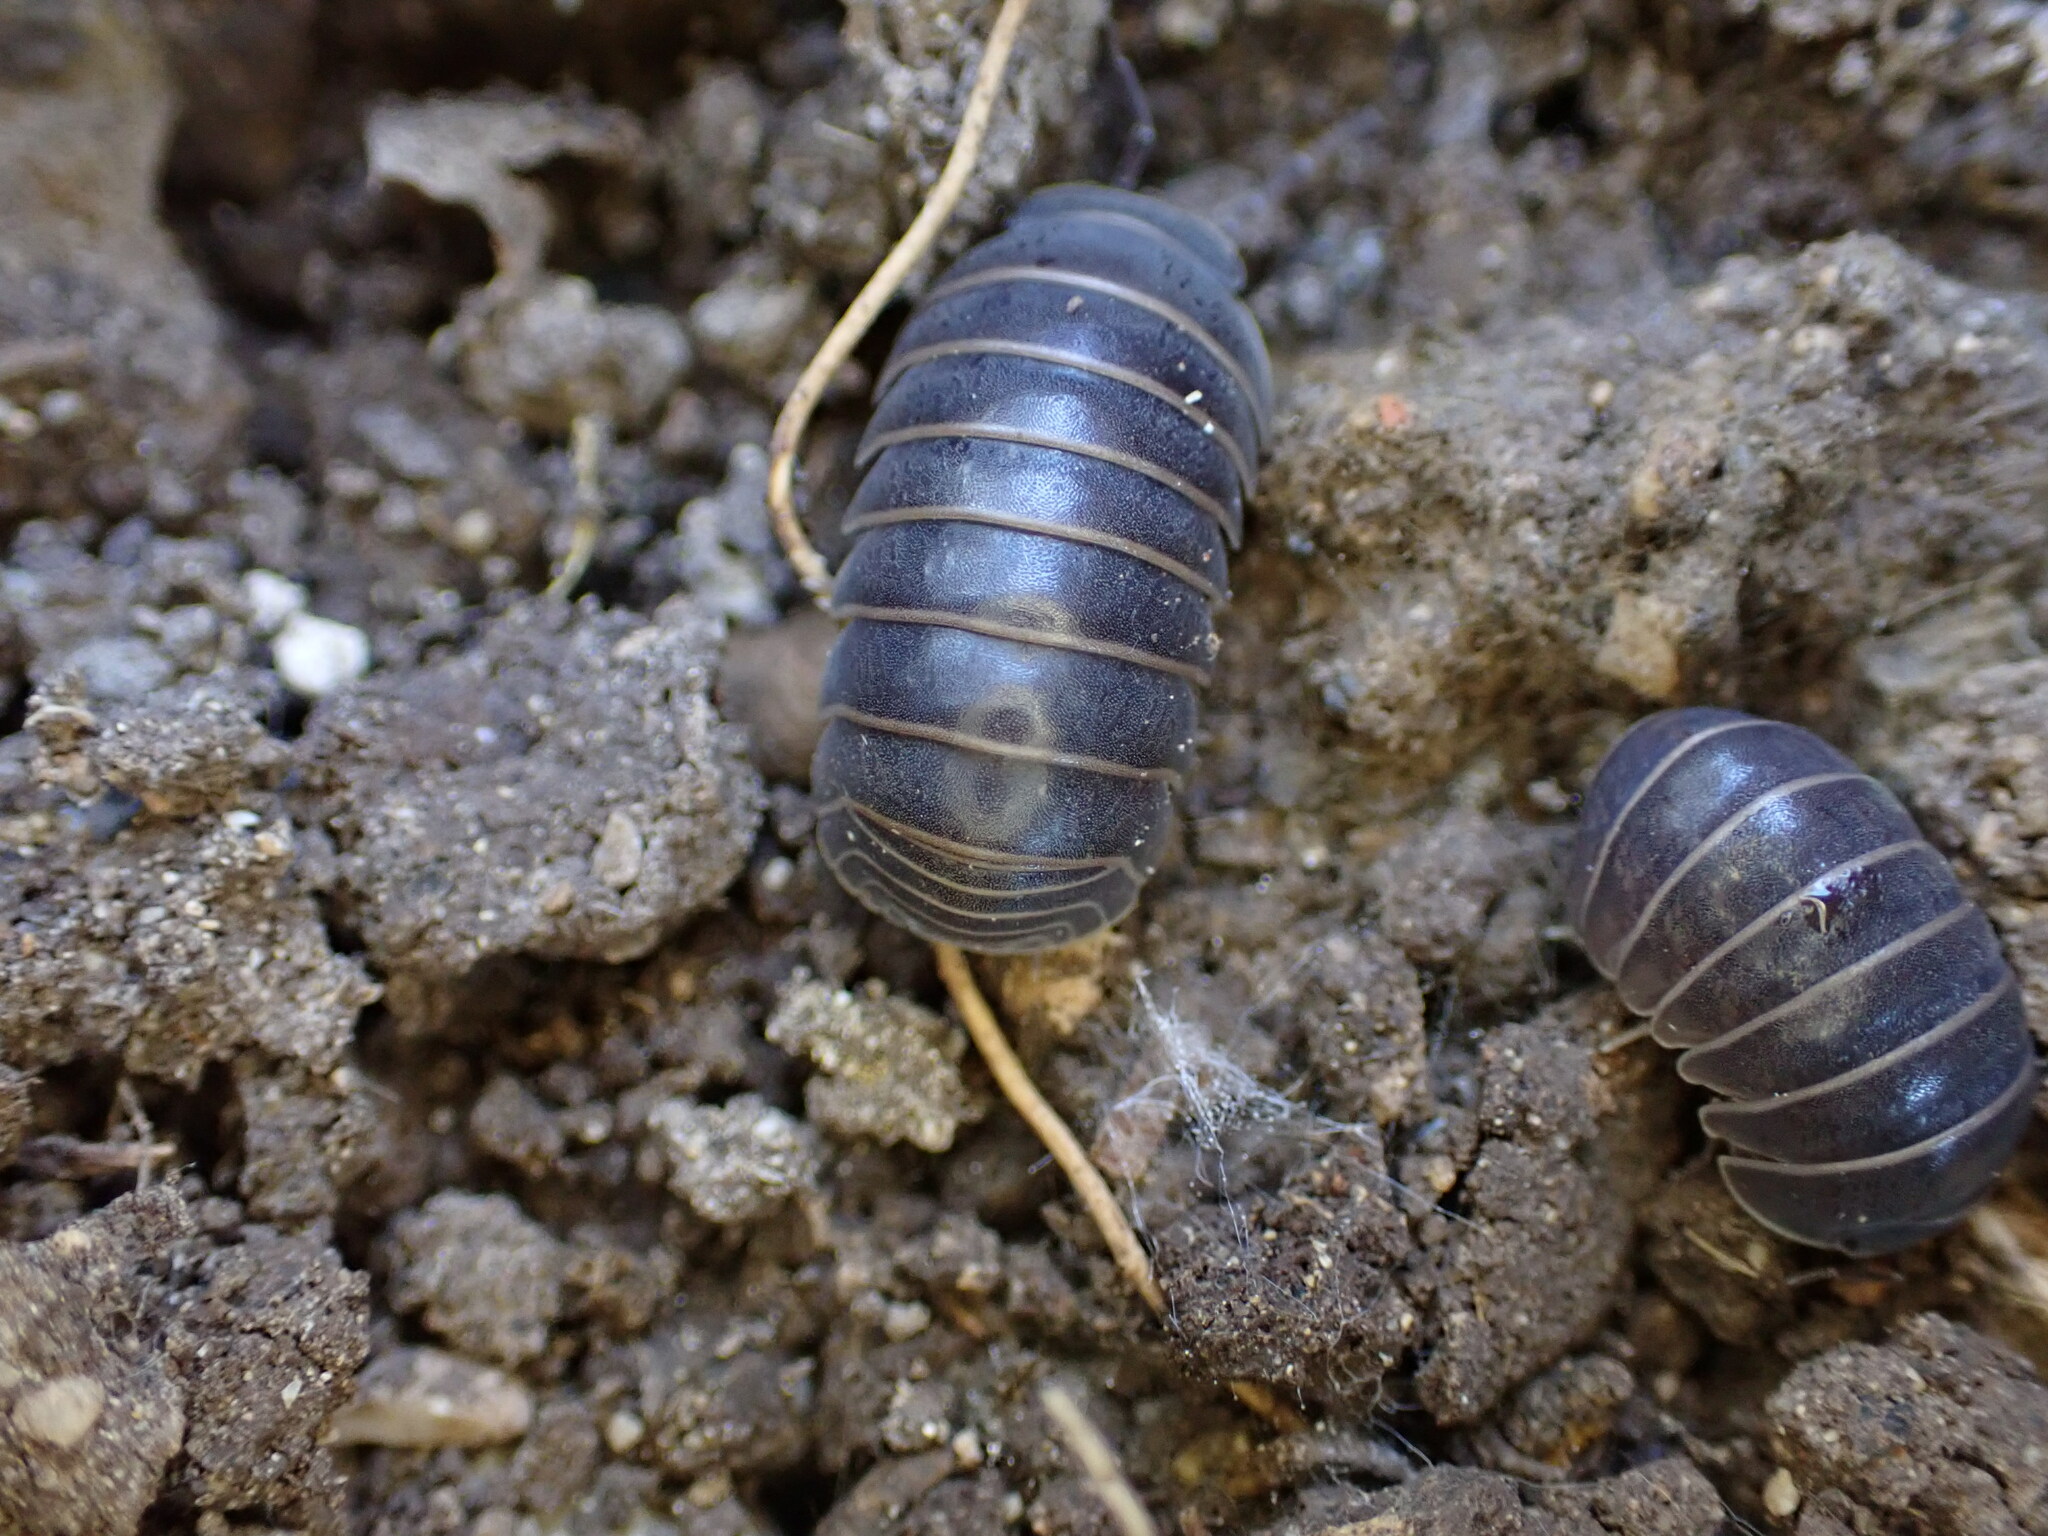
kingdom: Animalia
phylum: Arthropoda
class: Malacostraca
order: Isopoda
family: Armadillidae
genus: Armadillo
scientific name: Armadillo officinalis
